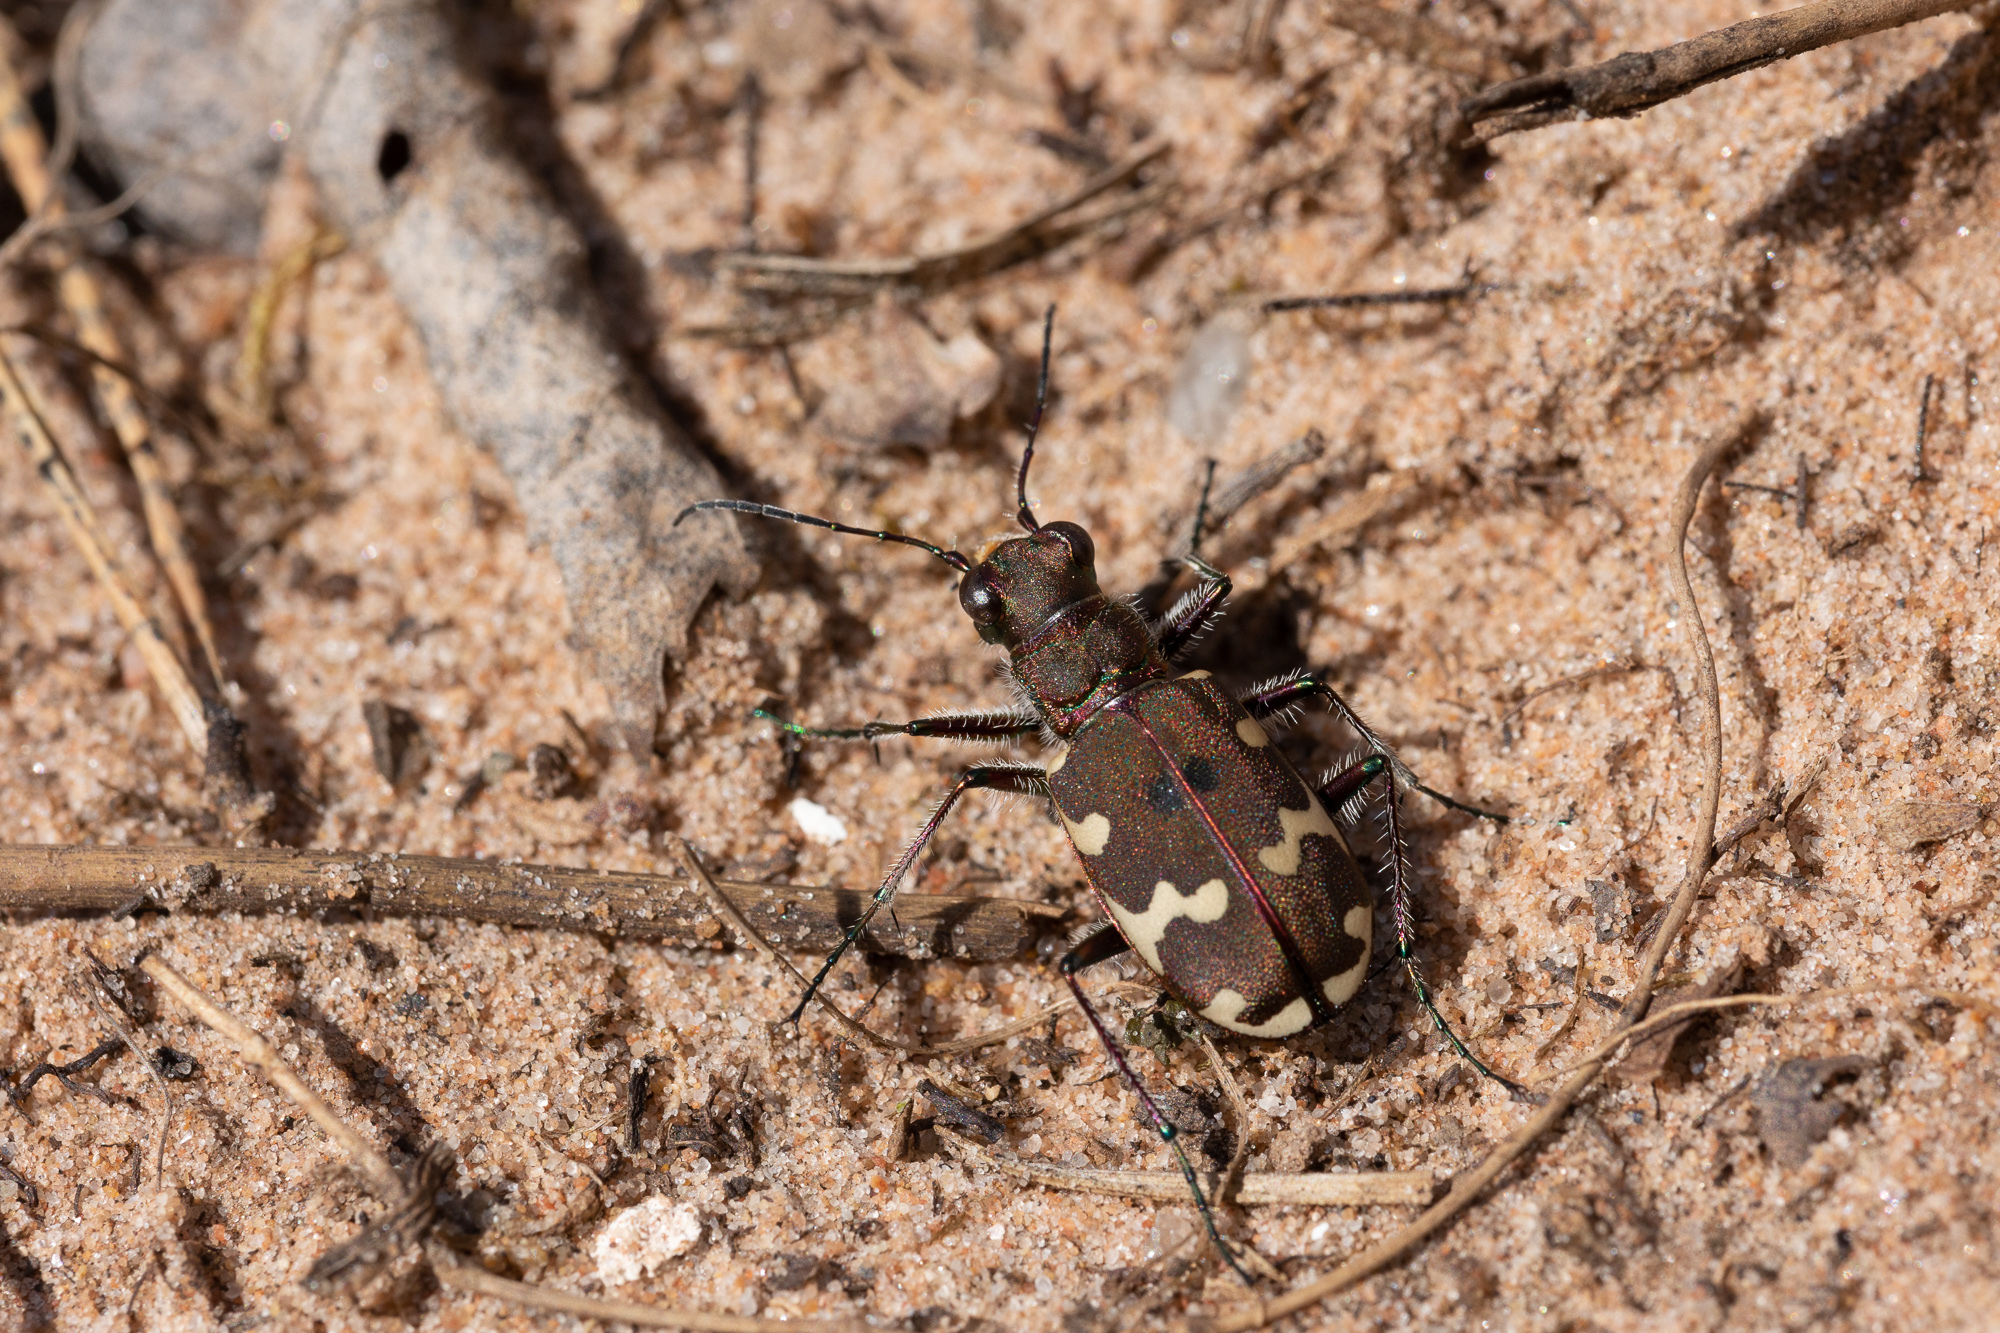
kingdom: Animalia
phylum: Arthropoda
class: Insecta
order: Coleoptera
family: Carabidae
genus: Cicindela
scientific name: Cicindela hybrida
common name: Northern dune tiger beetle
